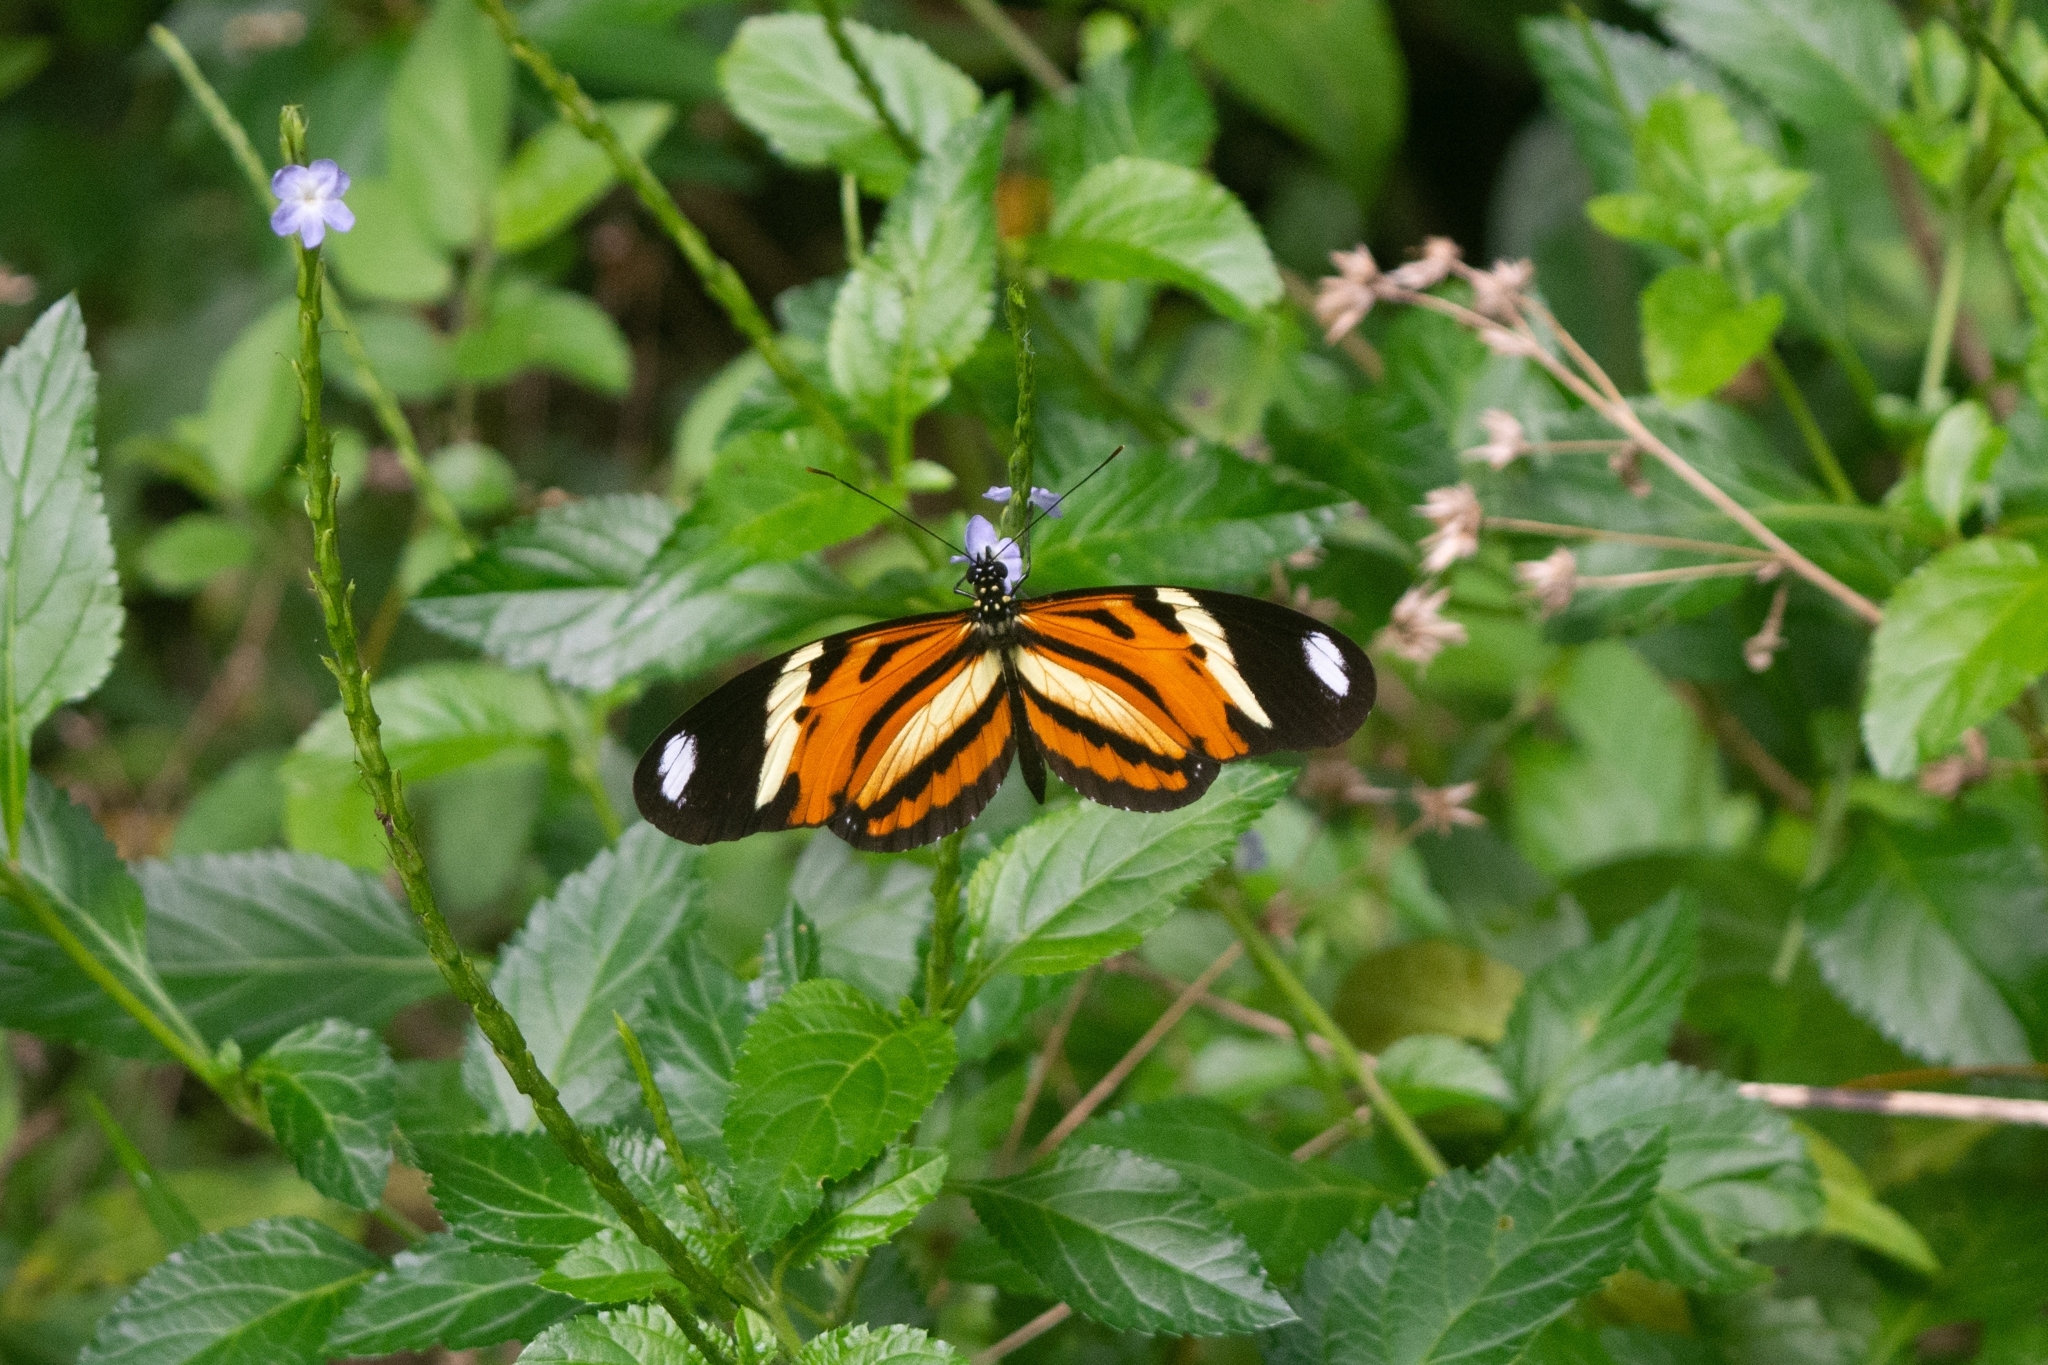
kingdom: Animalia
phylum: Arthropoda
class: Insecta
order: Lepidoptera
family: Nymphalidae
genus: Heliconius
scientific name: Heliconius ethilla
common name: Ethilia longwing
